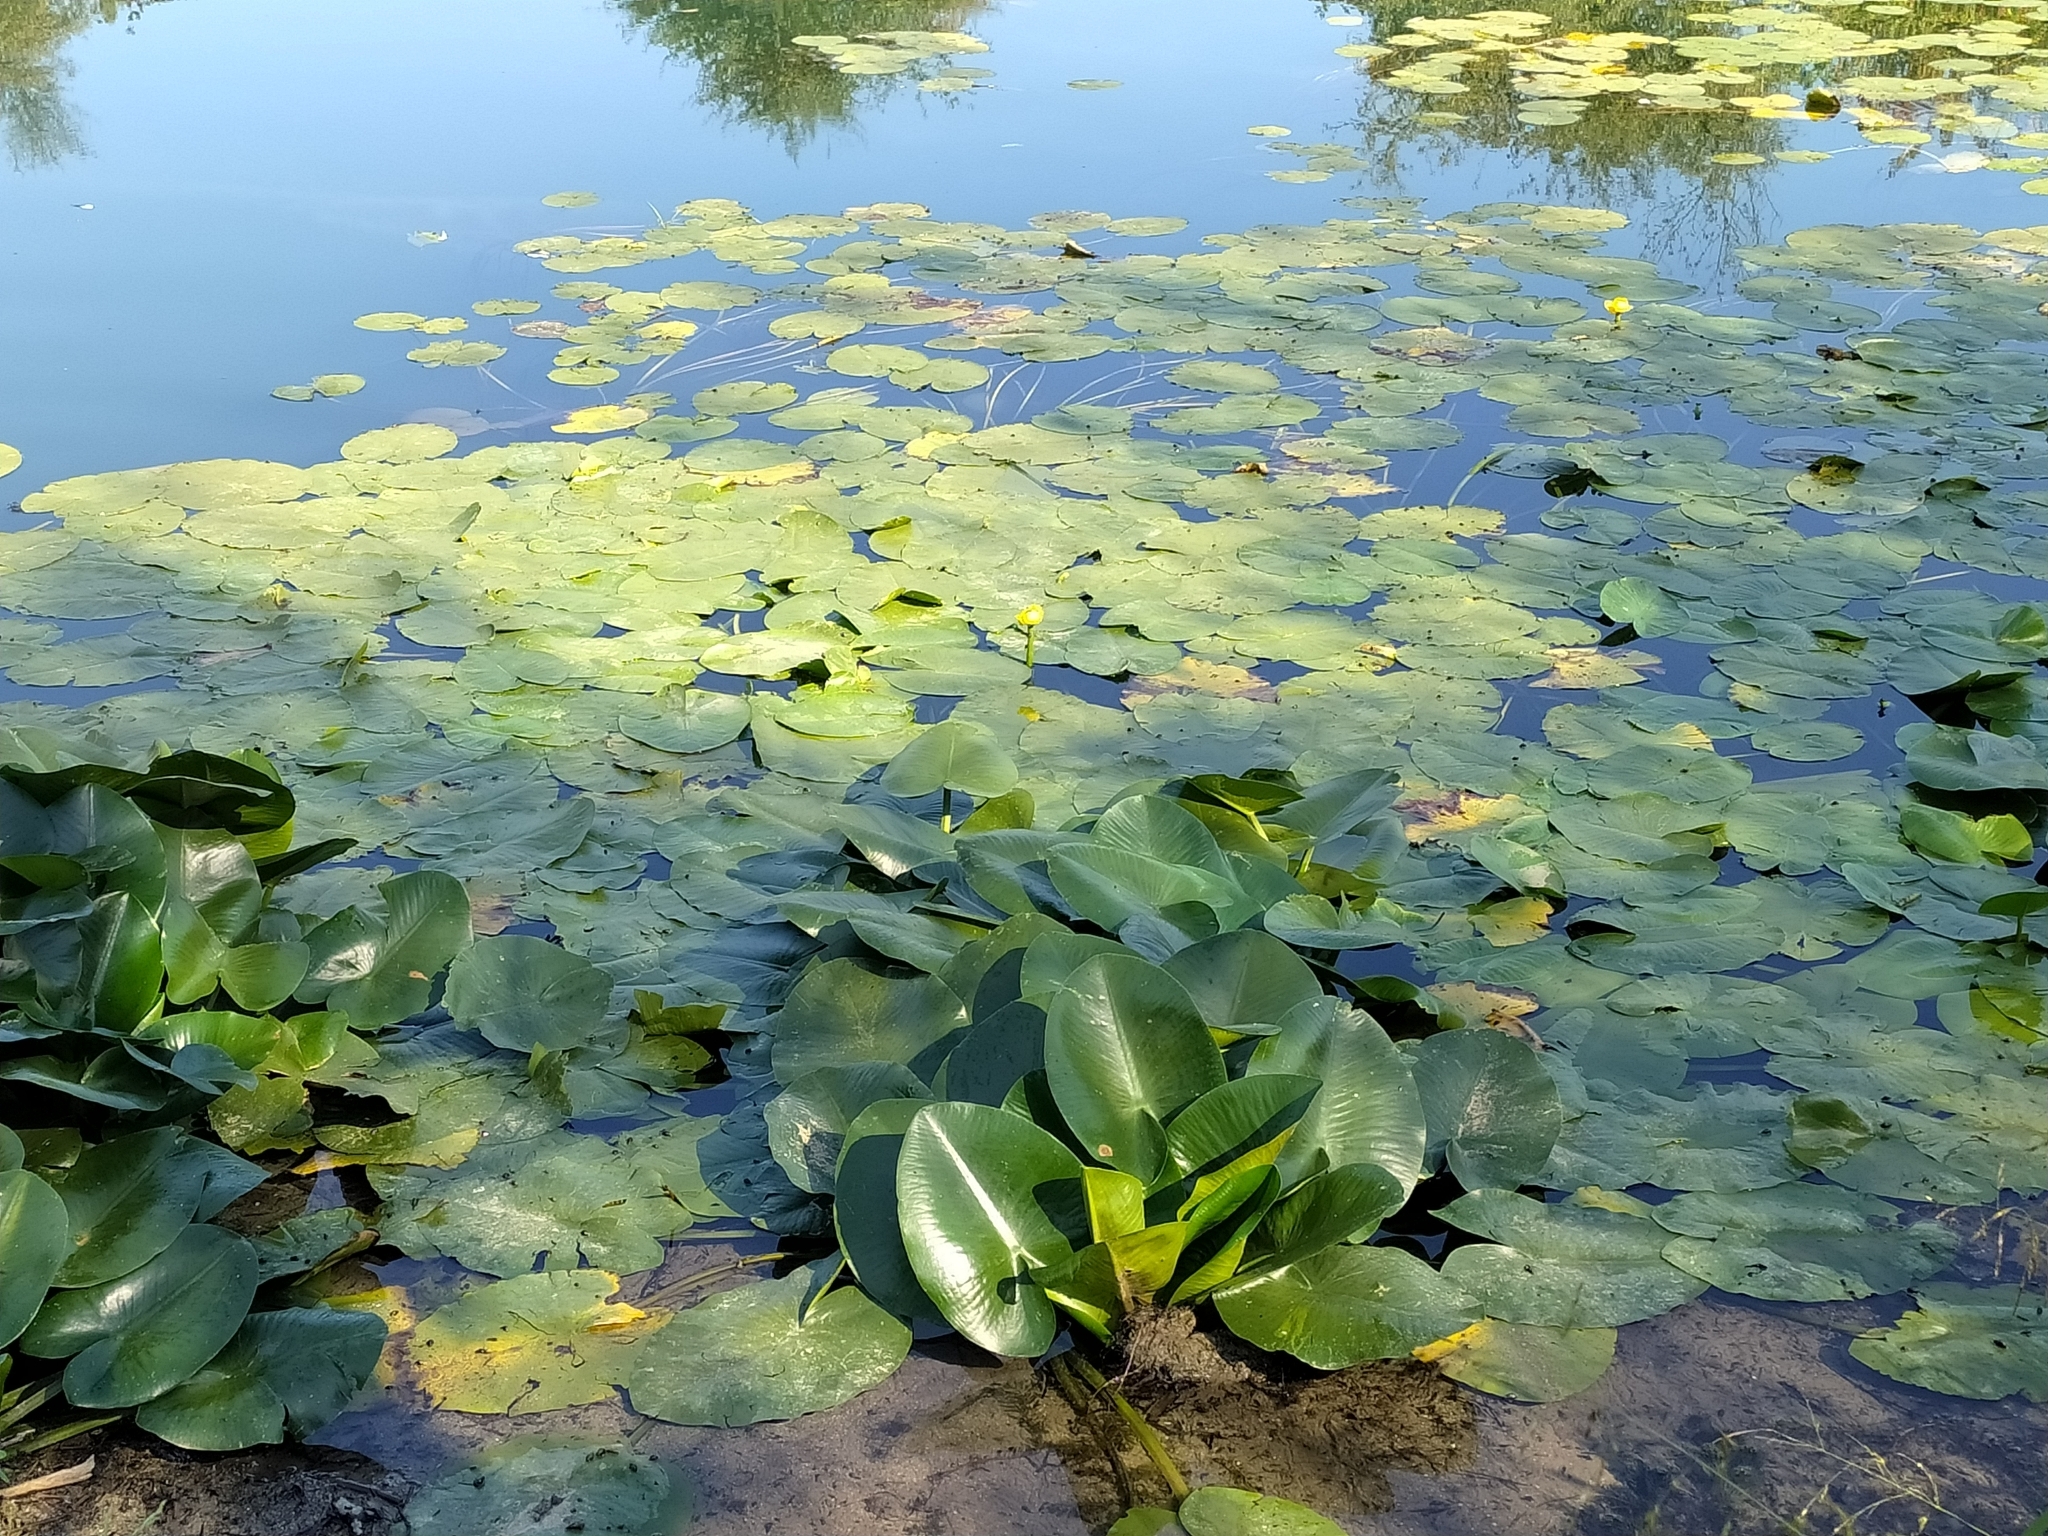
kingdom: Plantae
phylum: Tracheophyta
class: Magnoliopsida
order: Nymphaeales
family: Nymphaeaceae
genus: Nuphar
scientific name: Nuphar lutea
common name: Yellow water-lily
